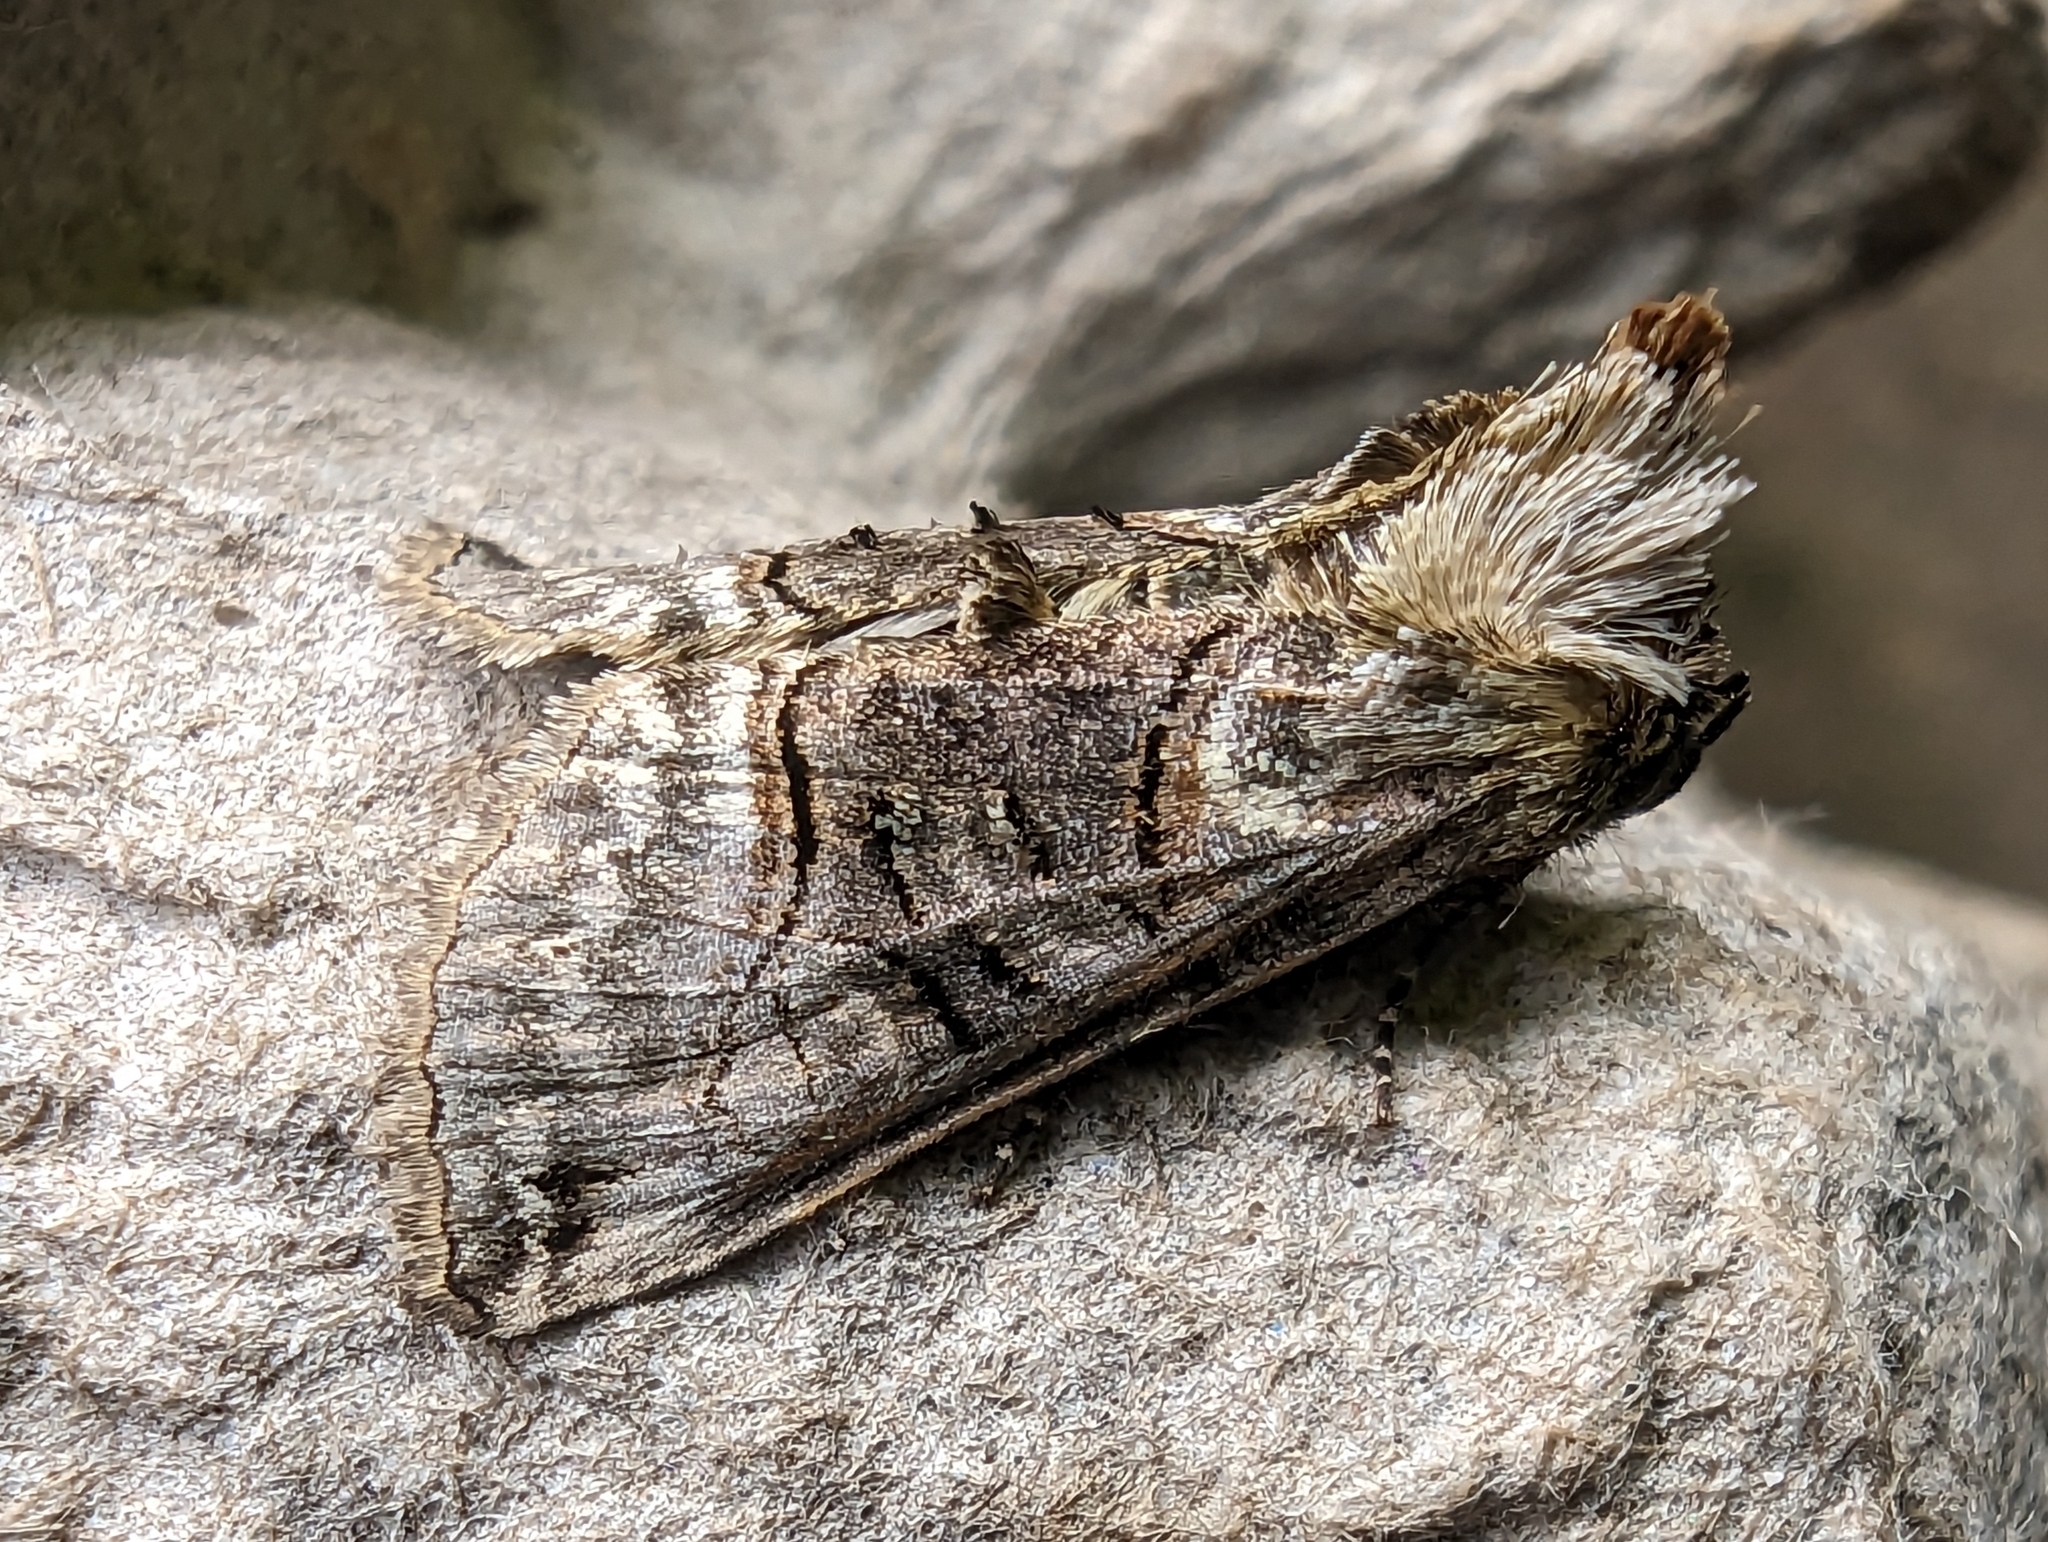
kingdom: Animalia
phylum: Arthropoda
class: Insecta
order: Lepidoptera
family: Noctuidae
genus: Abrostola
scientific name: Abrostola tripartita
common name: Spectacle
